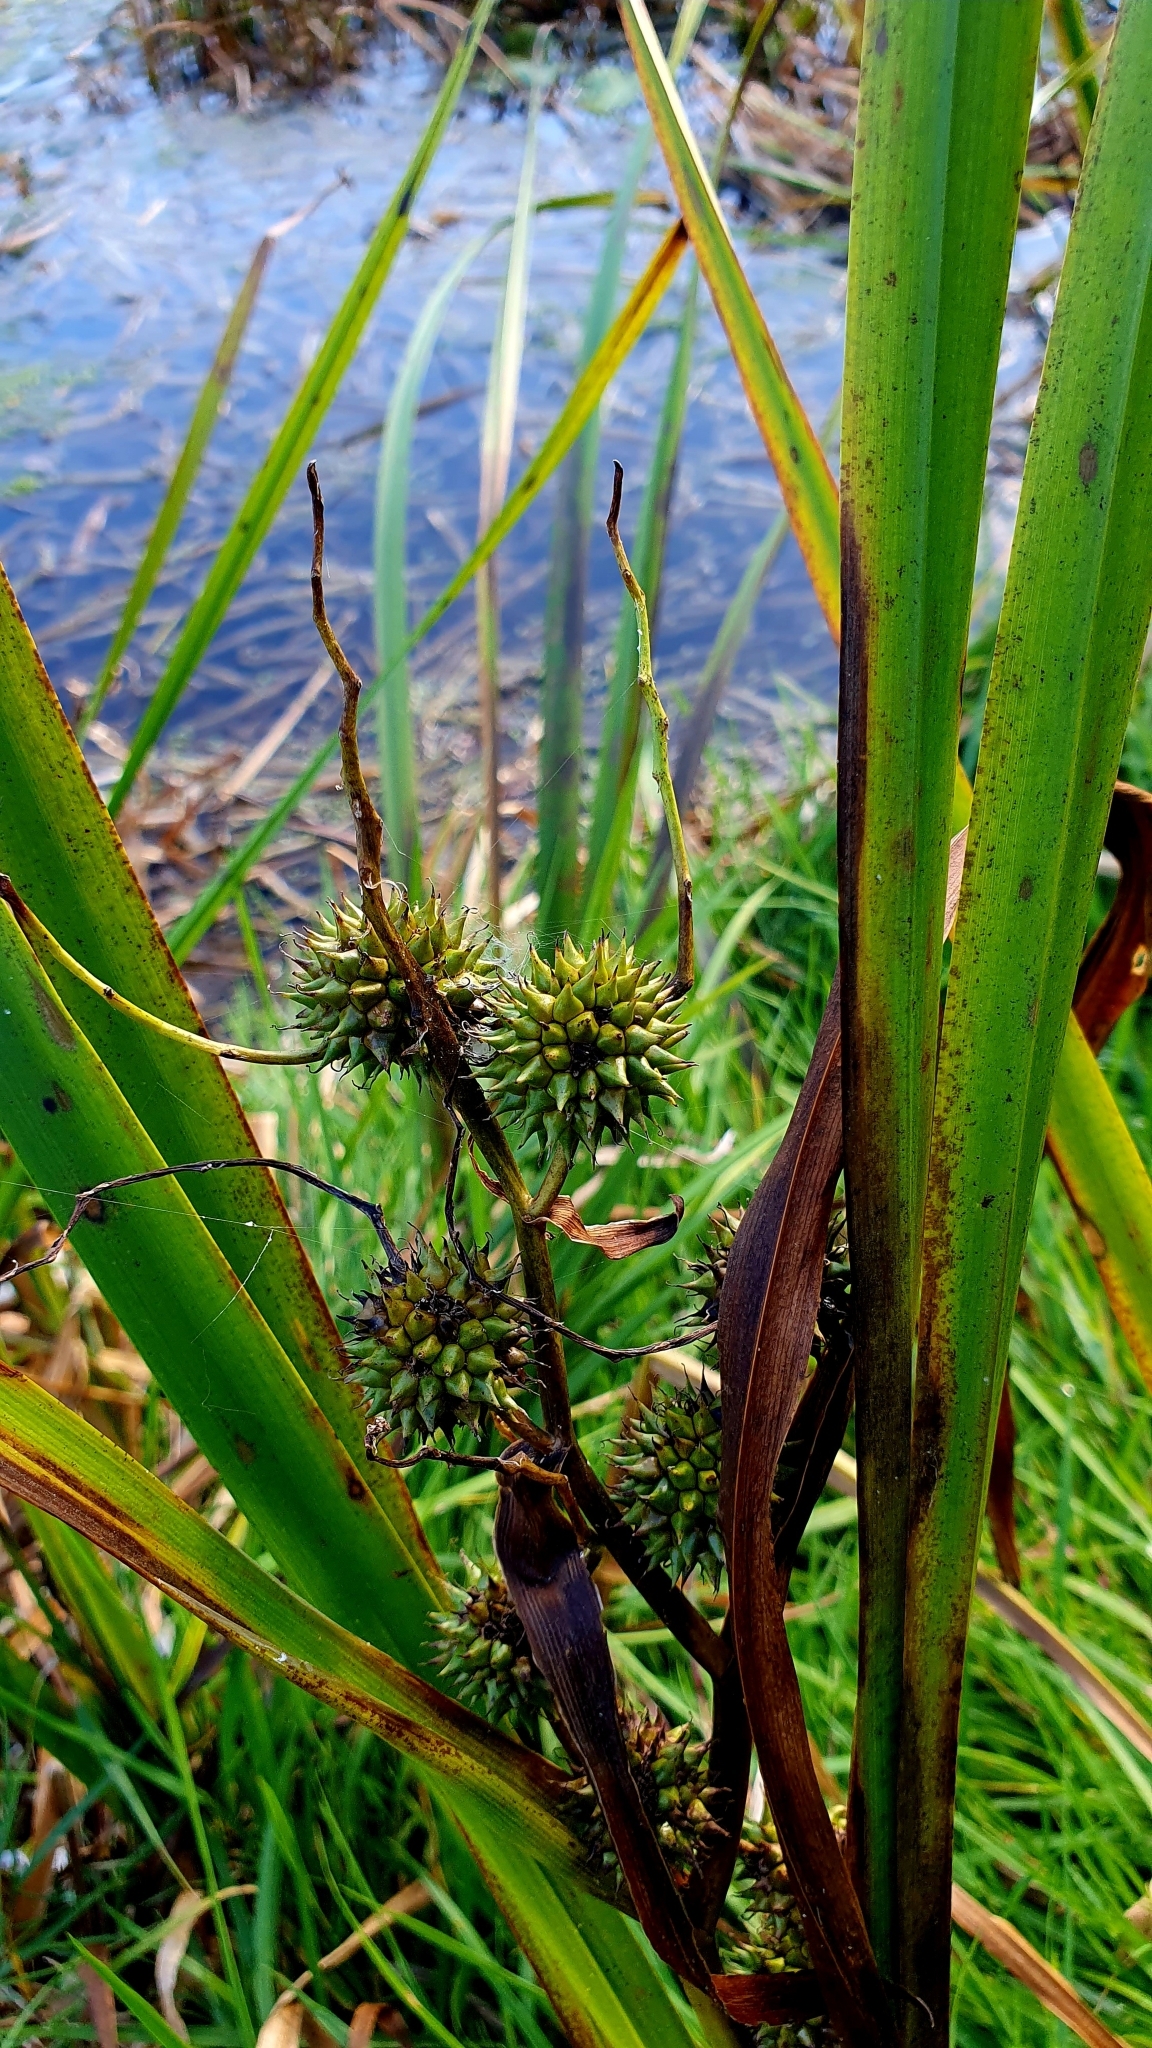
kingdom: Plantae
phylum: Tracheophyta
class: Liliopsida
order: Poales
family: Typhaceae
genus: Sparganium
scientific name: Sparganium erectum
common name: Branched bur-reed
